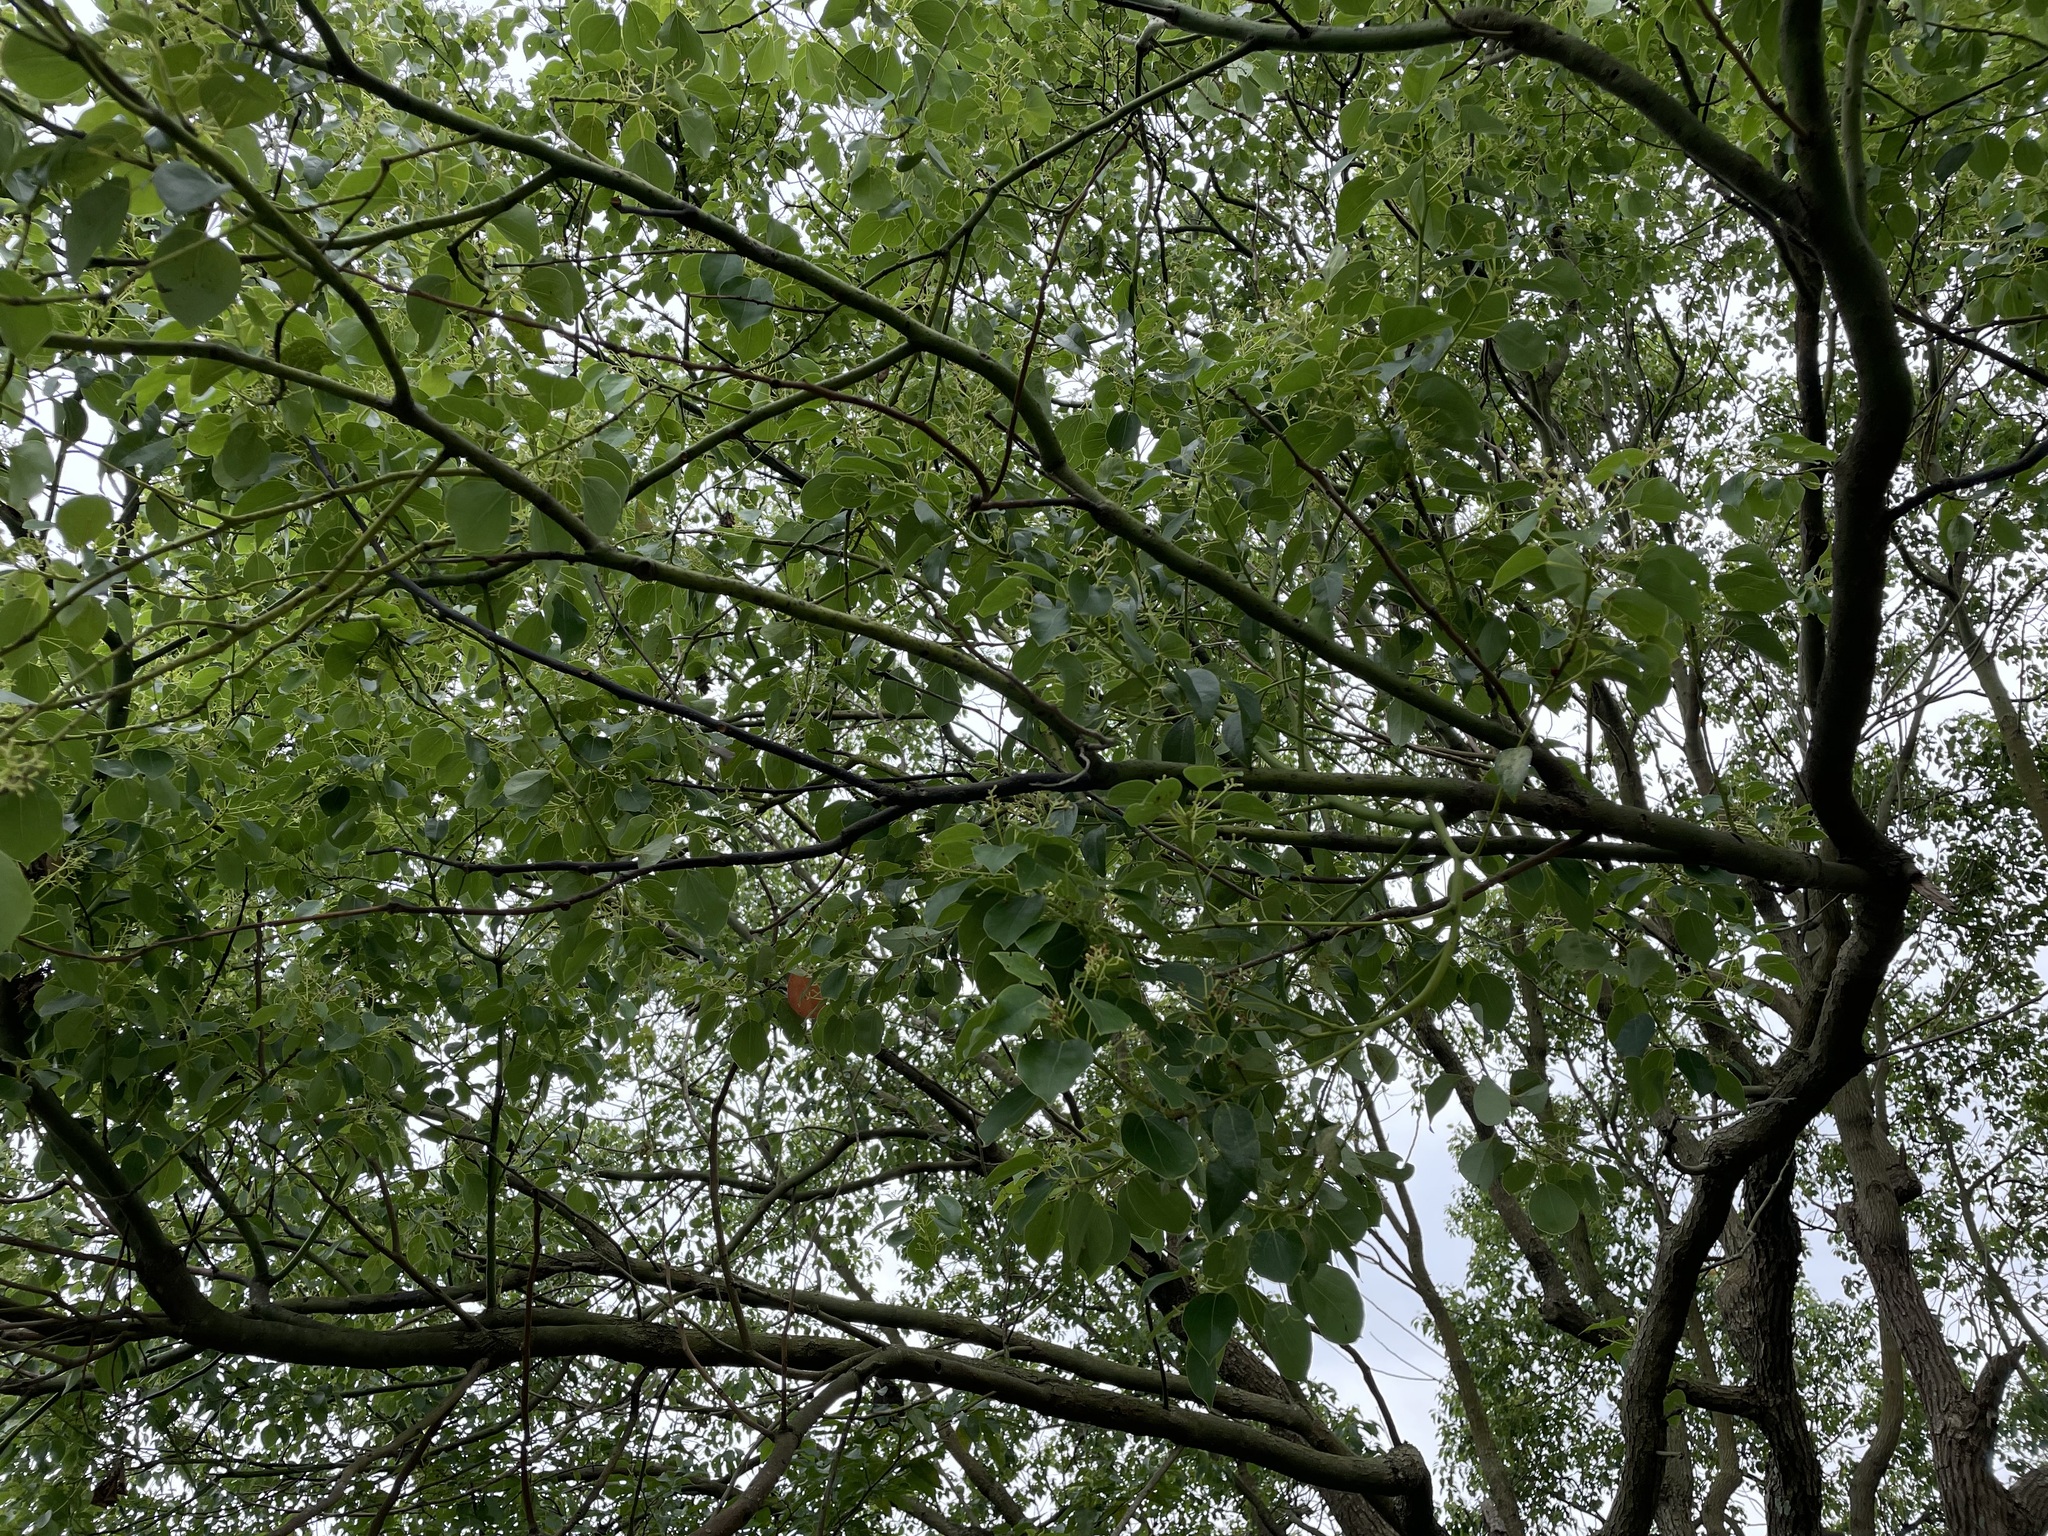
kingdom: Plantae
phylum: Tracheophyta
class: Magnoliopsida
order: Laurales
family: Lauraceae
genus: Cinnamomum
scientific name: Cinnamomum camphora
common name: Camphortree
